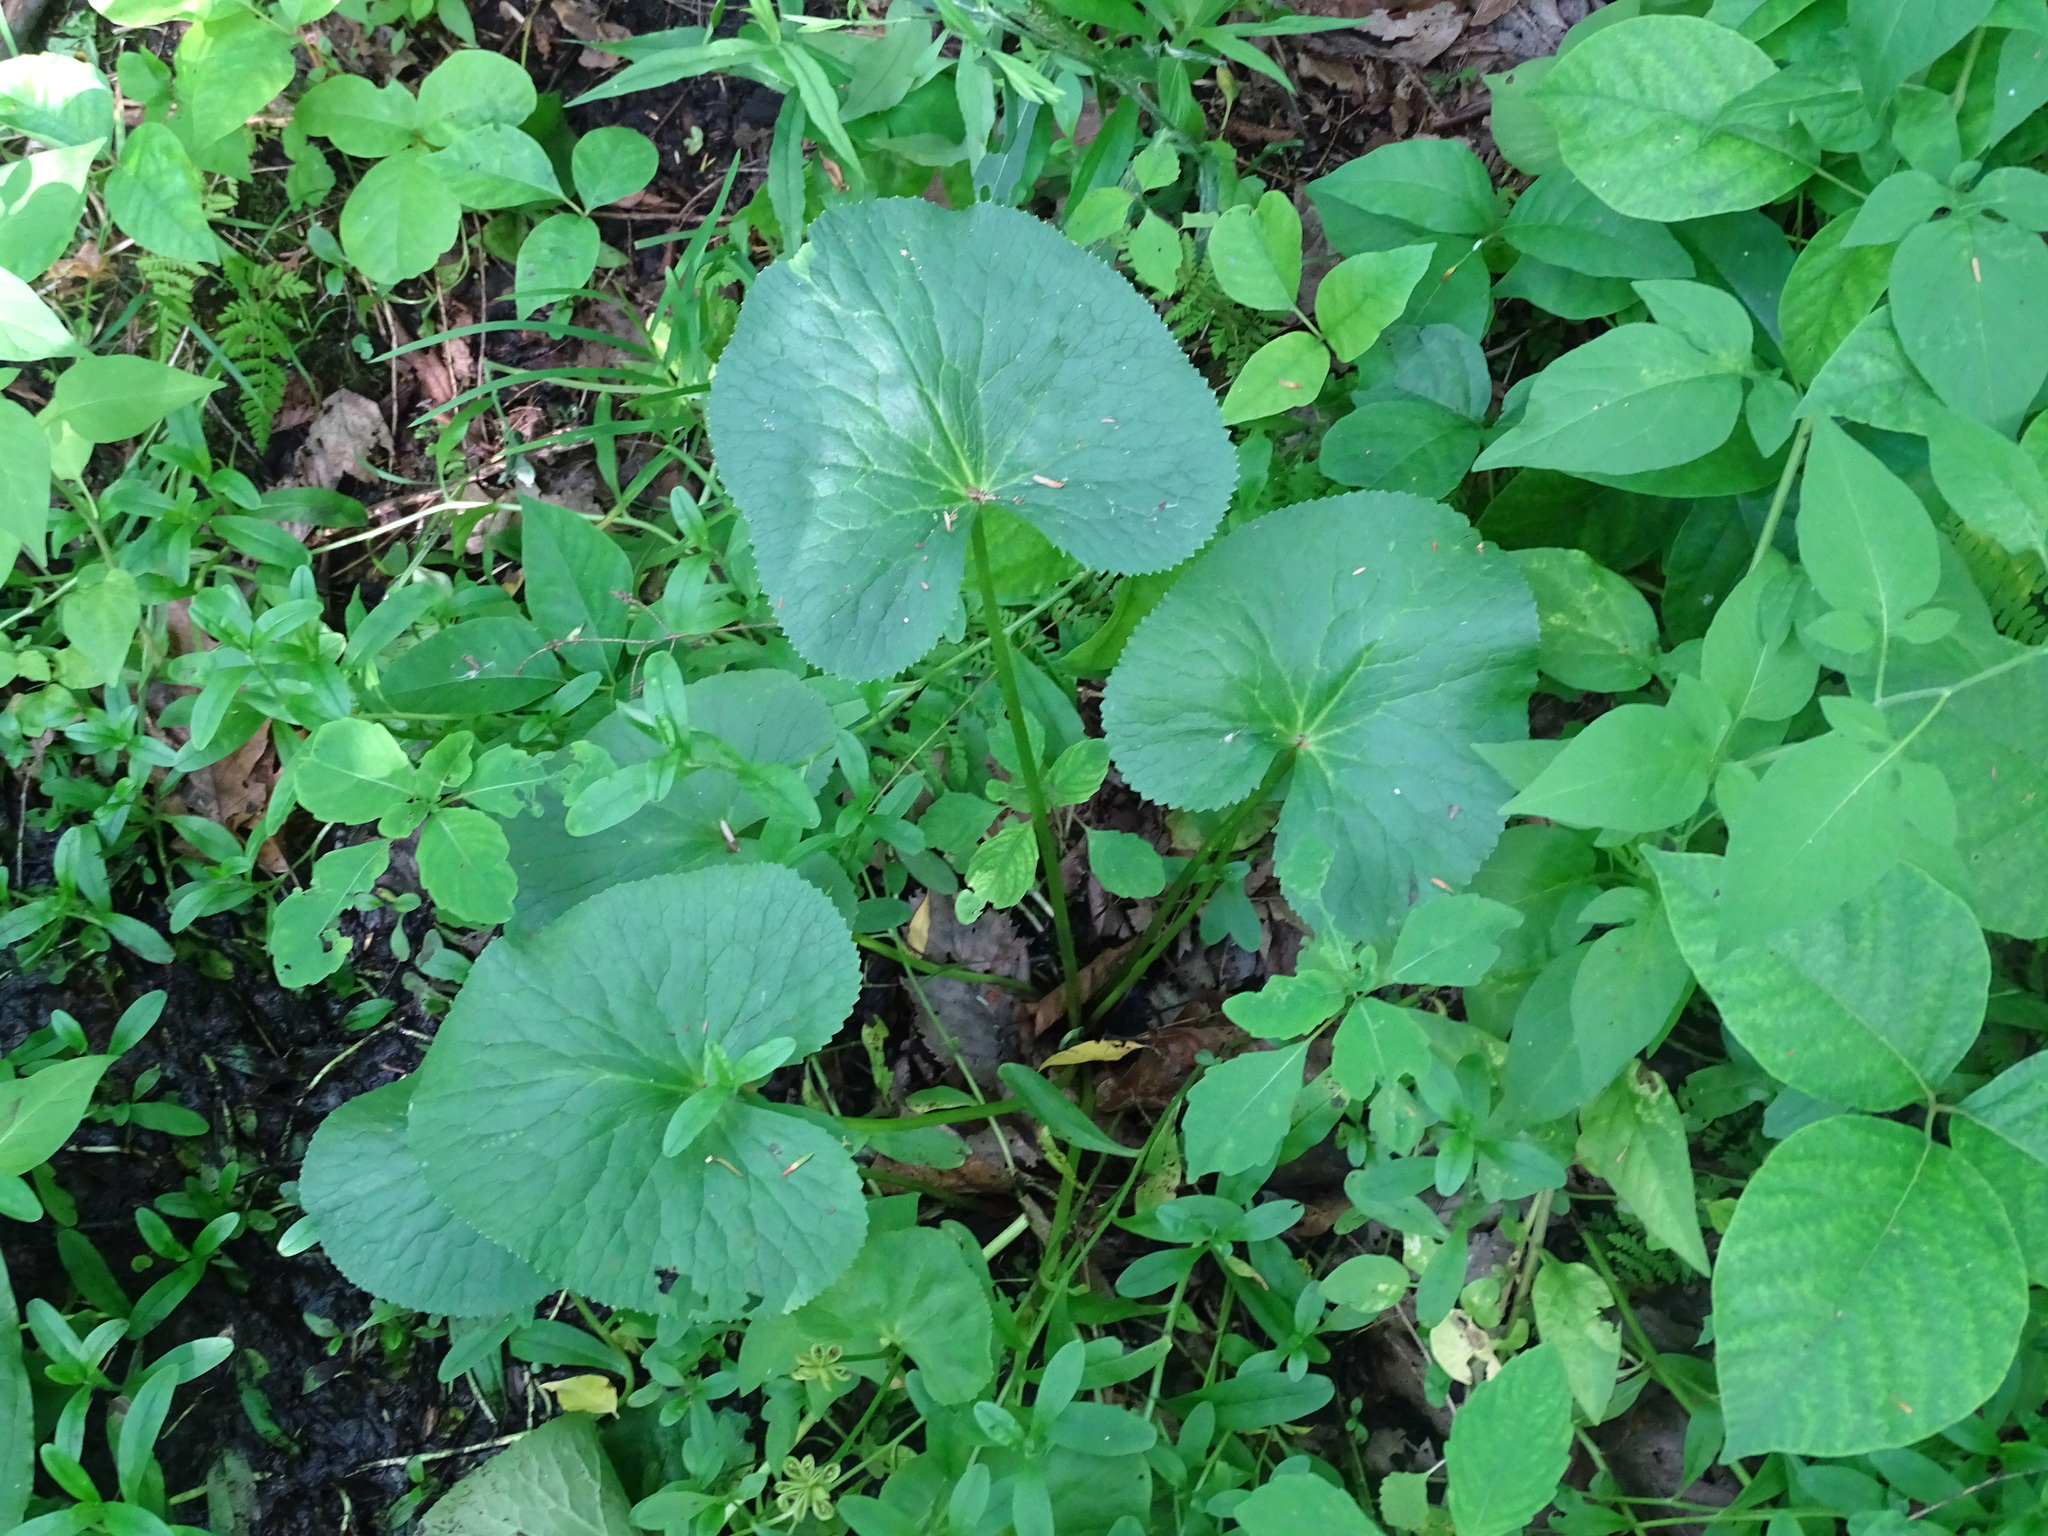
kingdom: Plantae
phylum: Tracheophyta
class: Magnoliopsida
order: Ranunculales
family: Ranunculaceae
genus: Caltha
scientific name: Caltha palustris
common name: Marsh marigold
